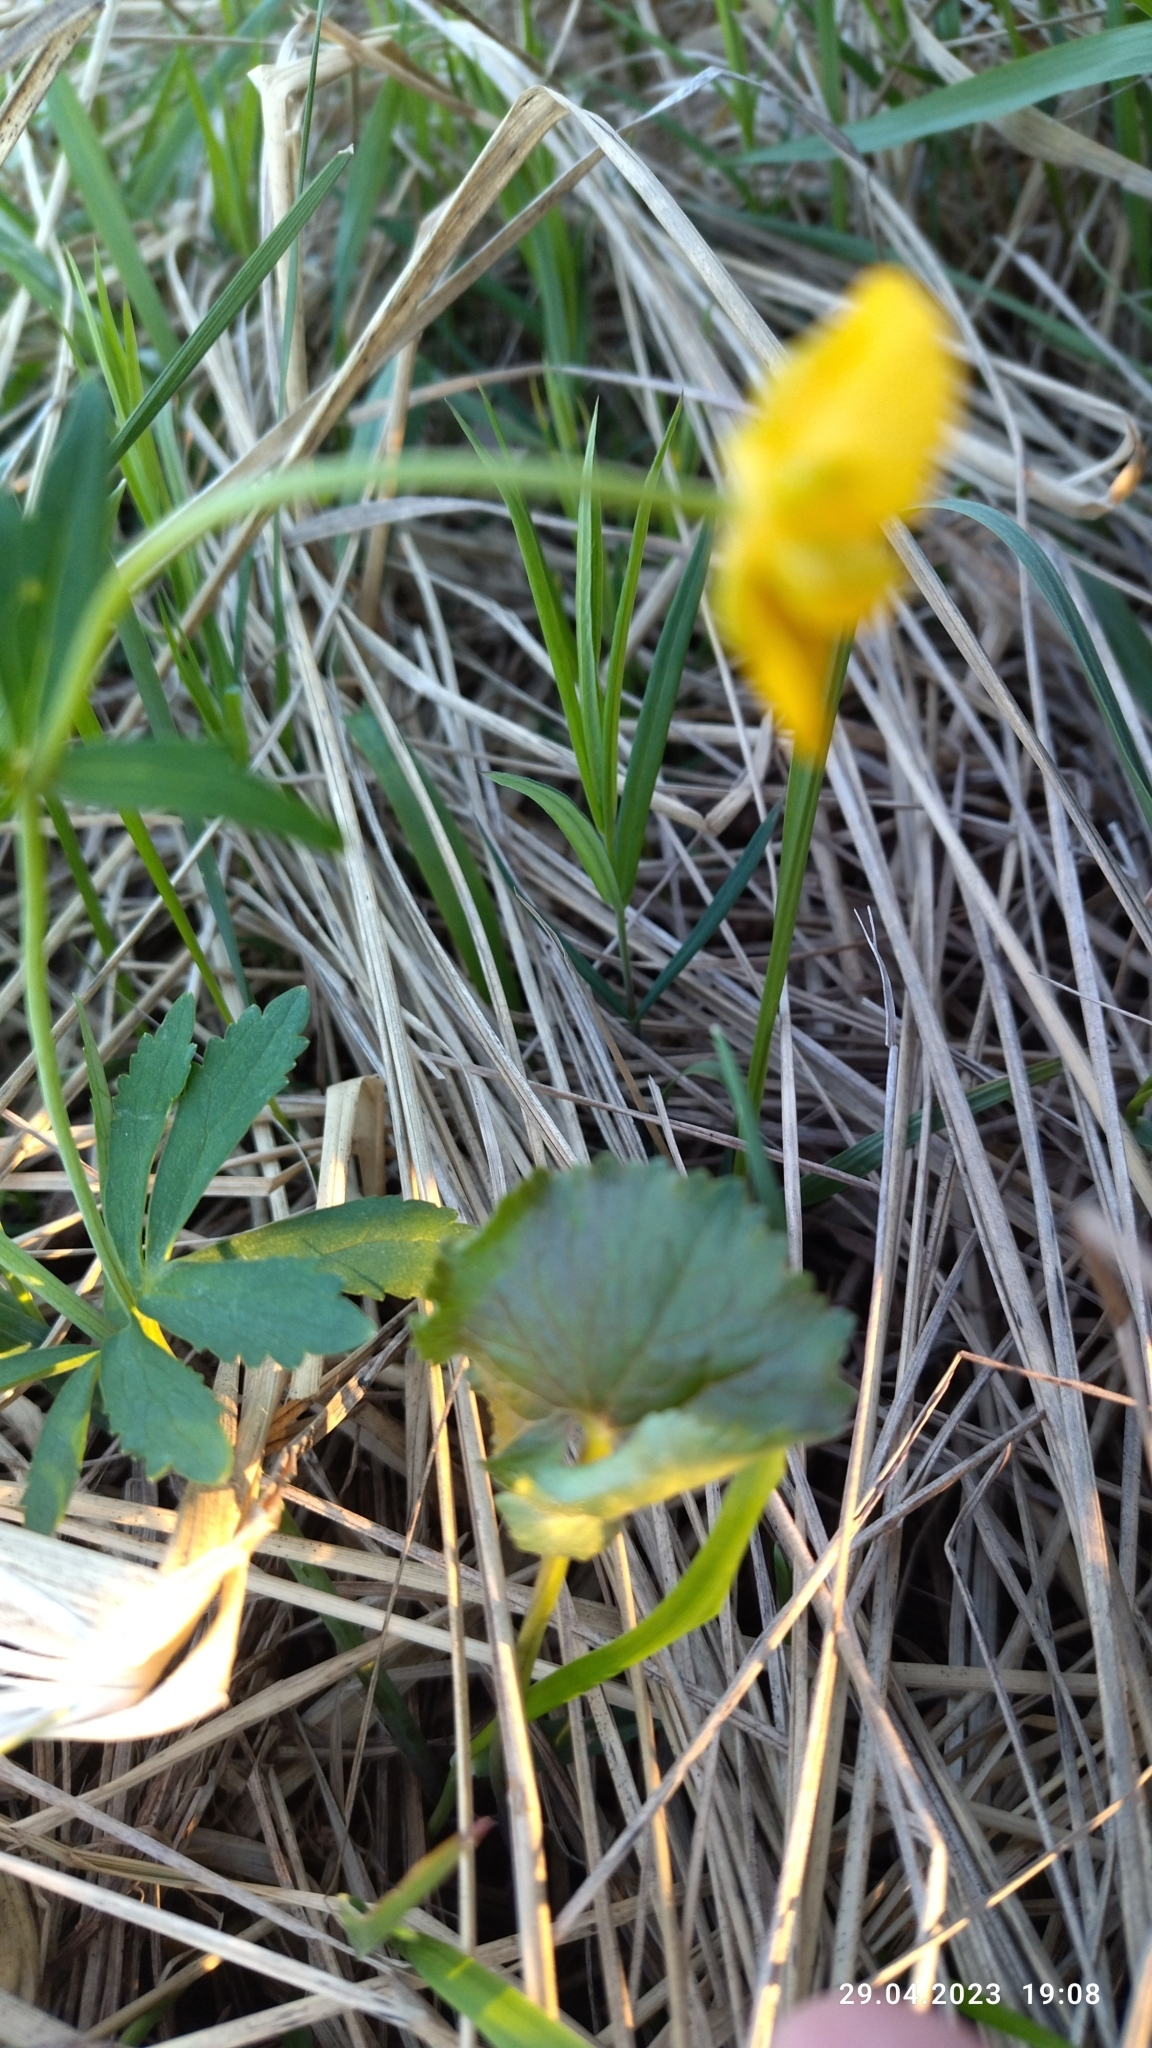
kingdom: Plantae
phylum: Tracheophyta
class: Magnoliopsida
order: Ranunculales
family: Ranunculaceae
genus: Ranunculus
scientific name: Ranunculus cassubicus
